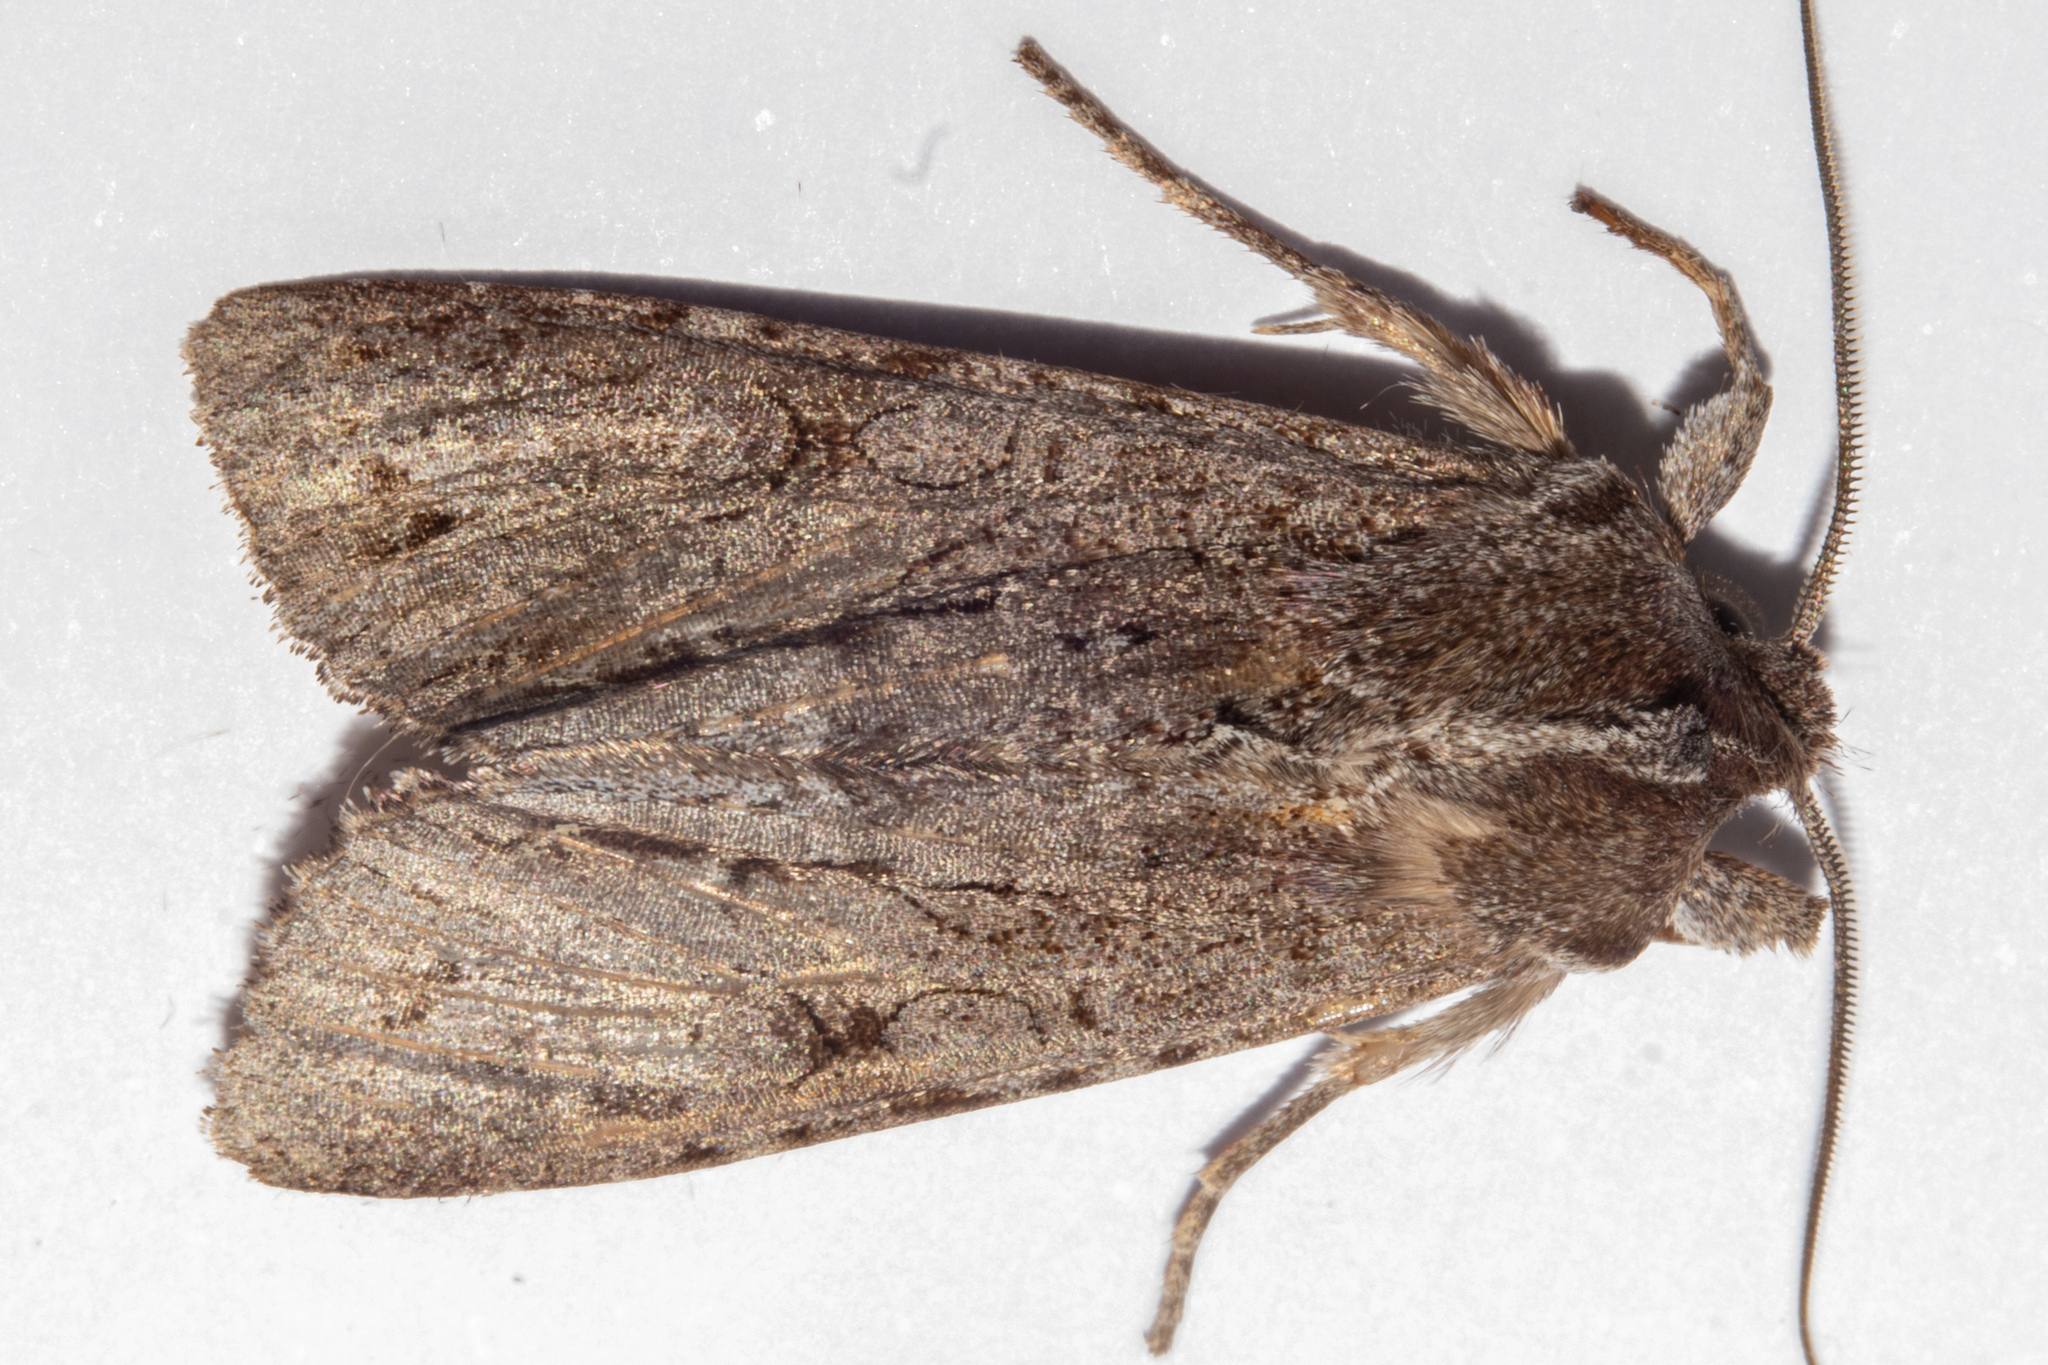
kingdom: Animalia
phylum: Arthropoda
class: Insecta
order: Lepidoptera
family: Noctuidae
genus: Ichneutica
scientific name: Ichneutica
